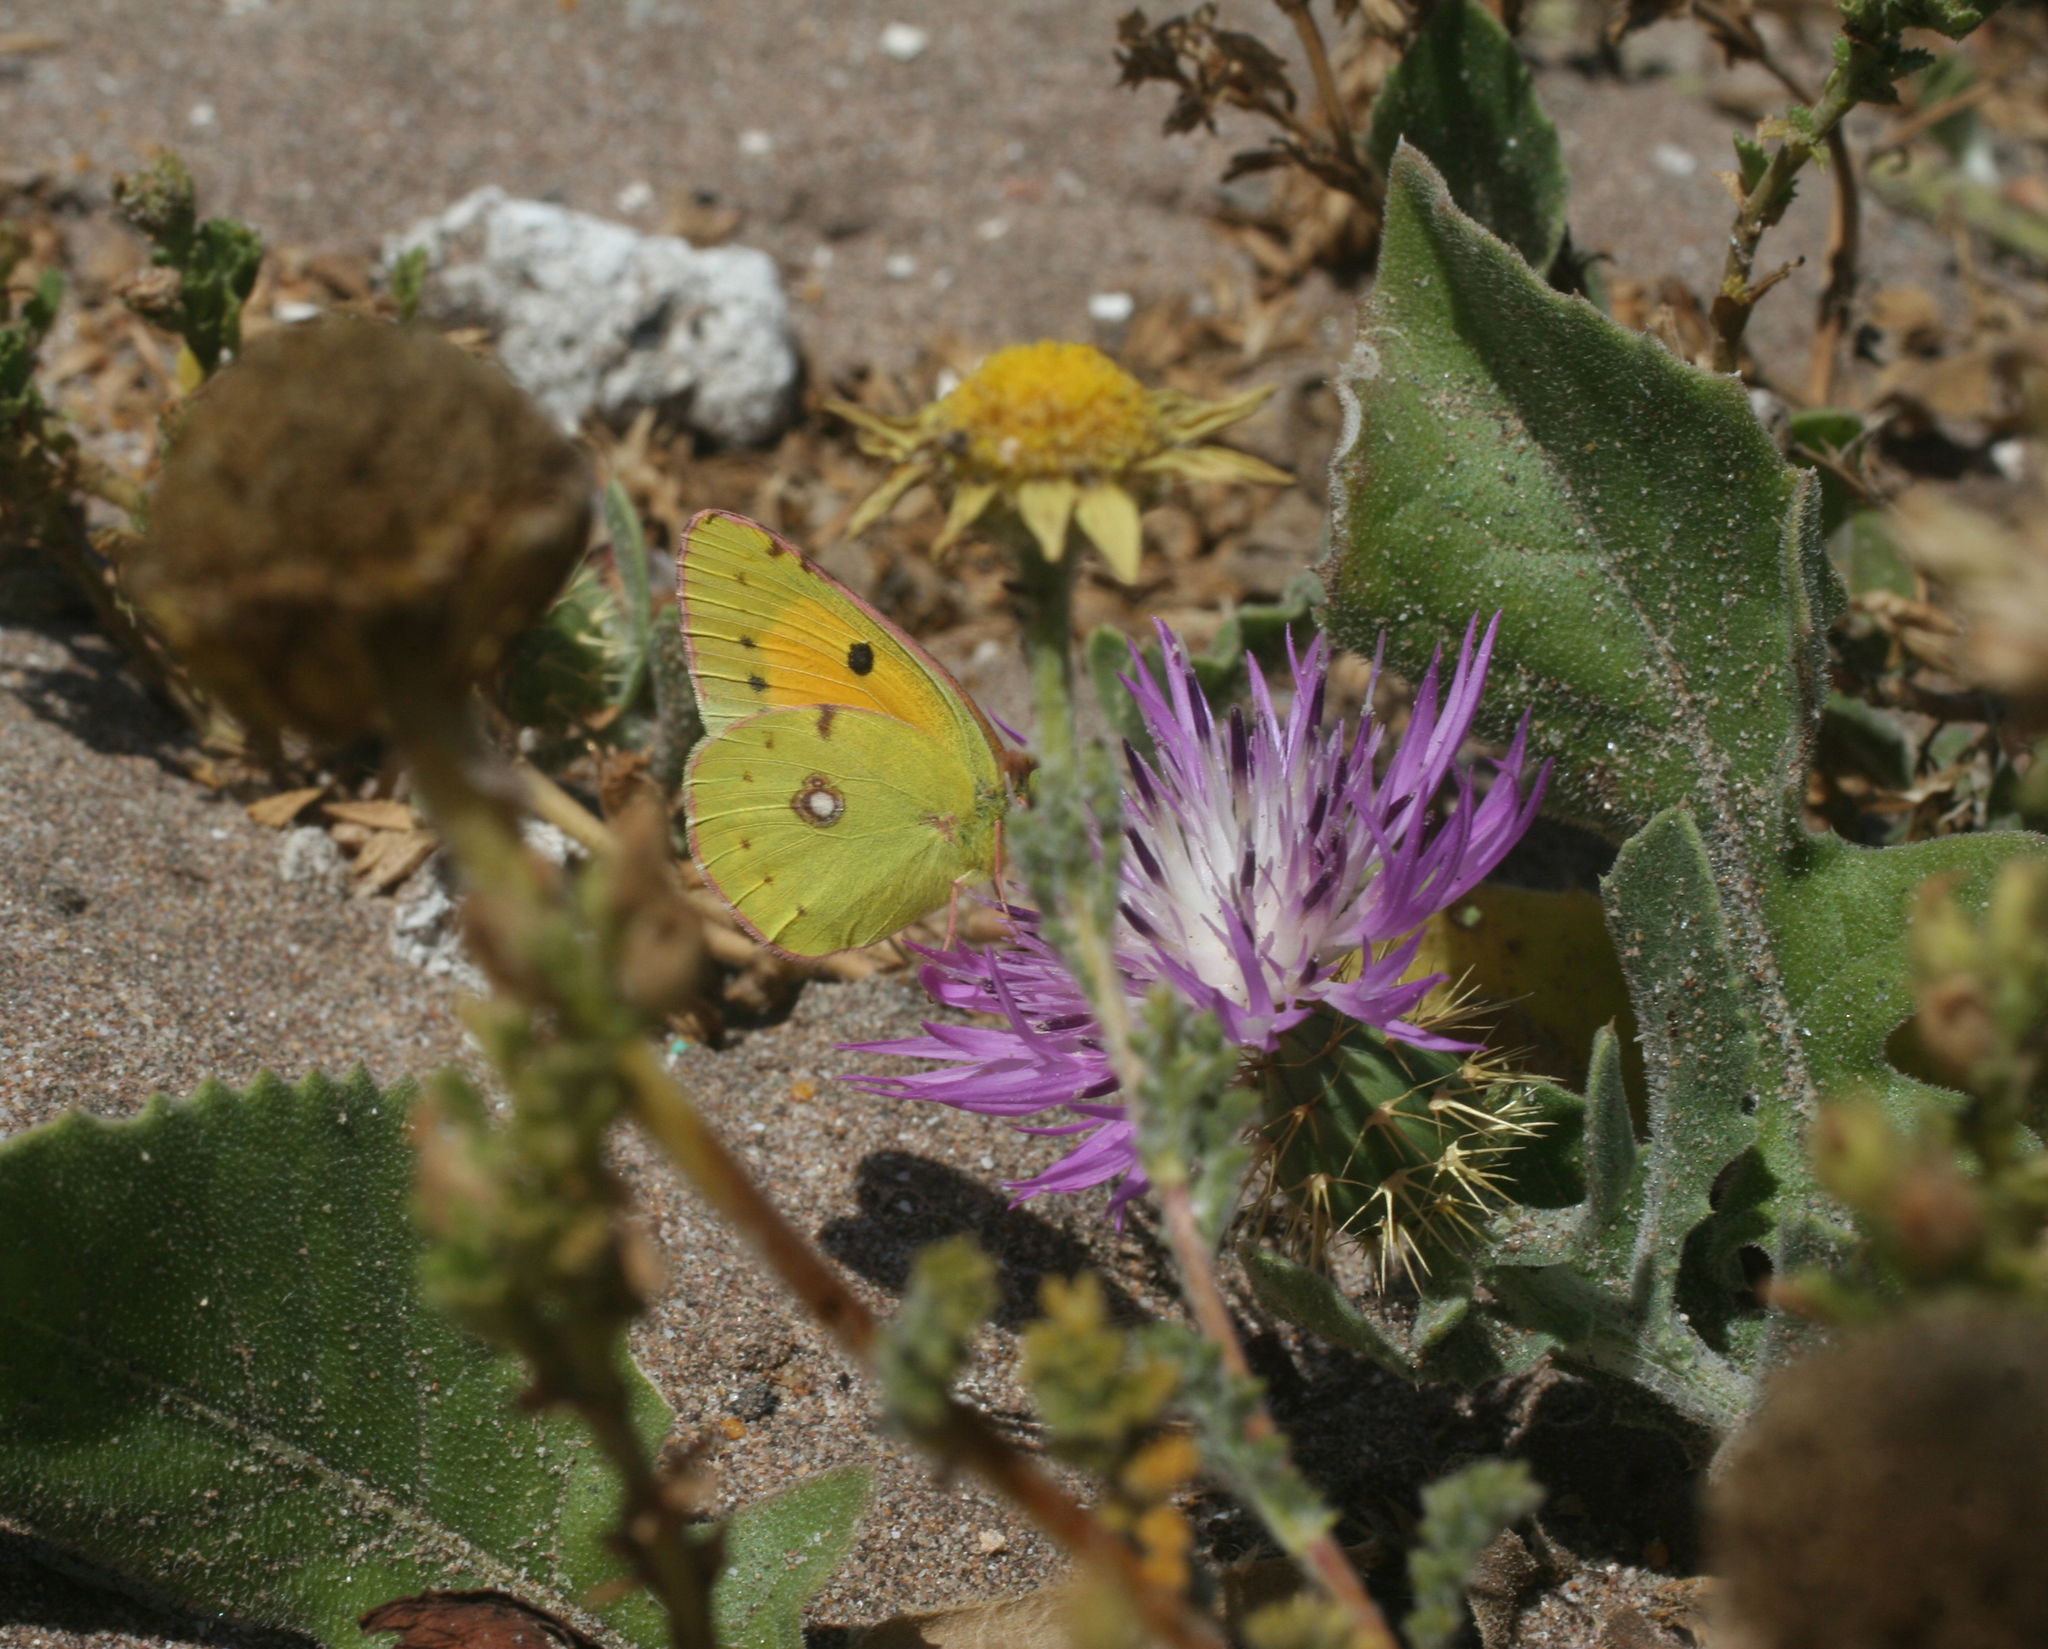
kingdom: Animalia
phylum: Arthropoda
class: Insecta
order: Lepidoptera
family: Pieridae
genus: Colias
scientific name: Colias croceus
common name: Clouded yellow
